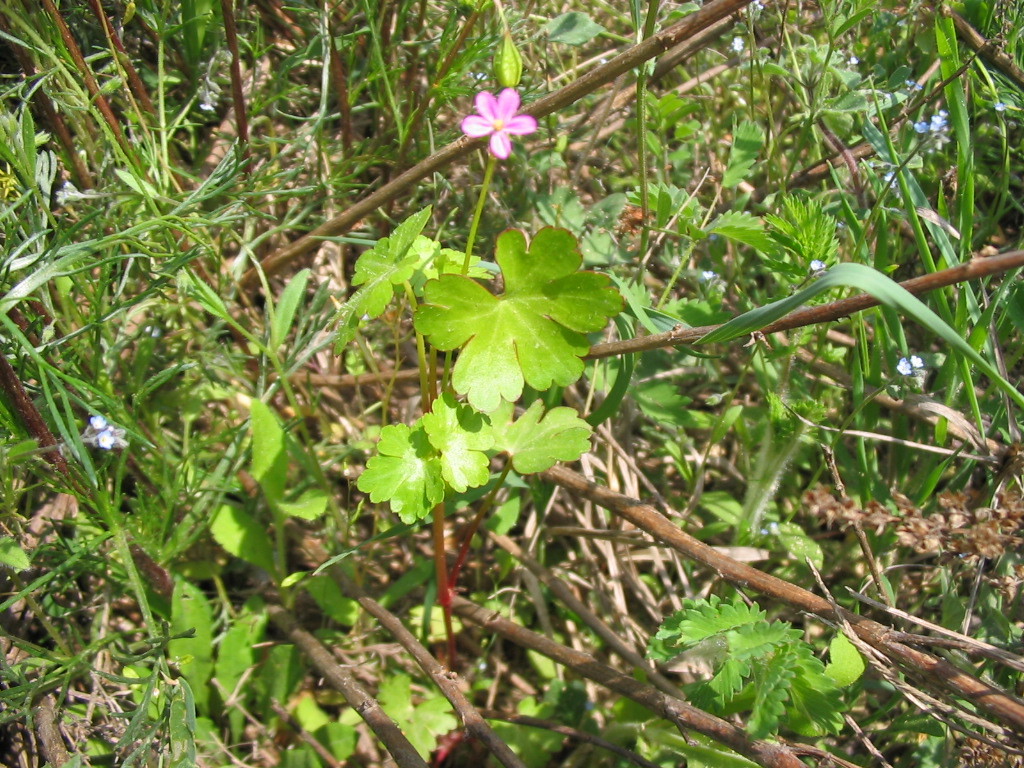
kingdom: Plantae
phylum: Tracheophyta
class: Magnoliopsida
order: Geraniales
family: Geraniaceae
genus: Geranium
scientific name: Geranium lucidum
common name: Shining crane's-bill
